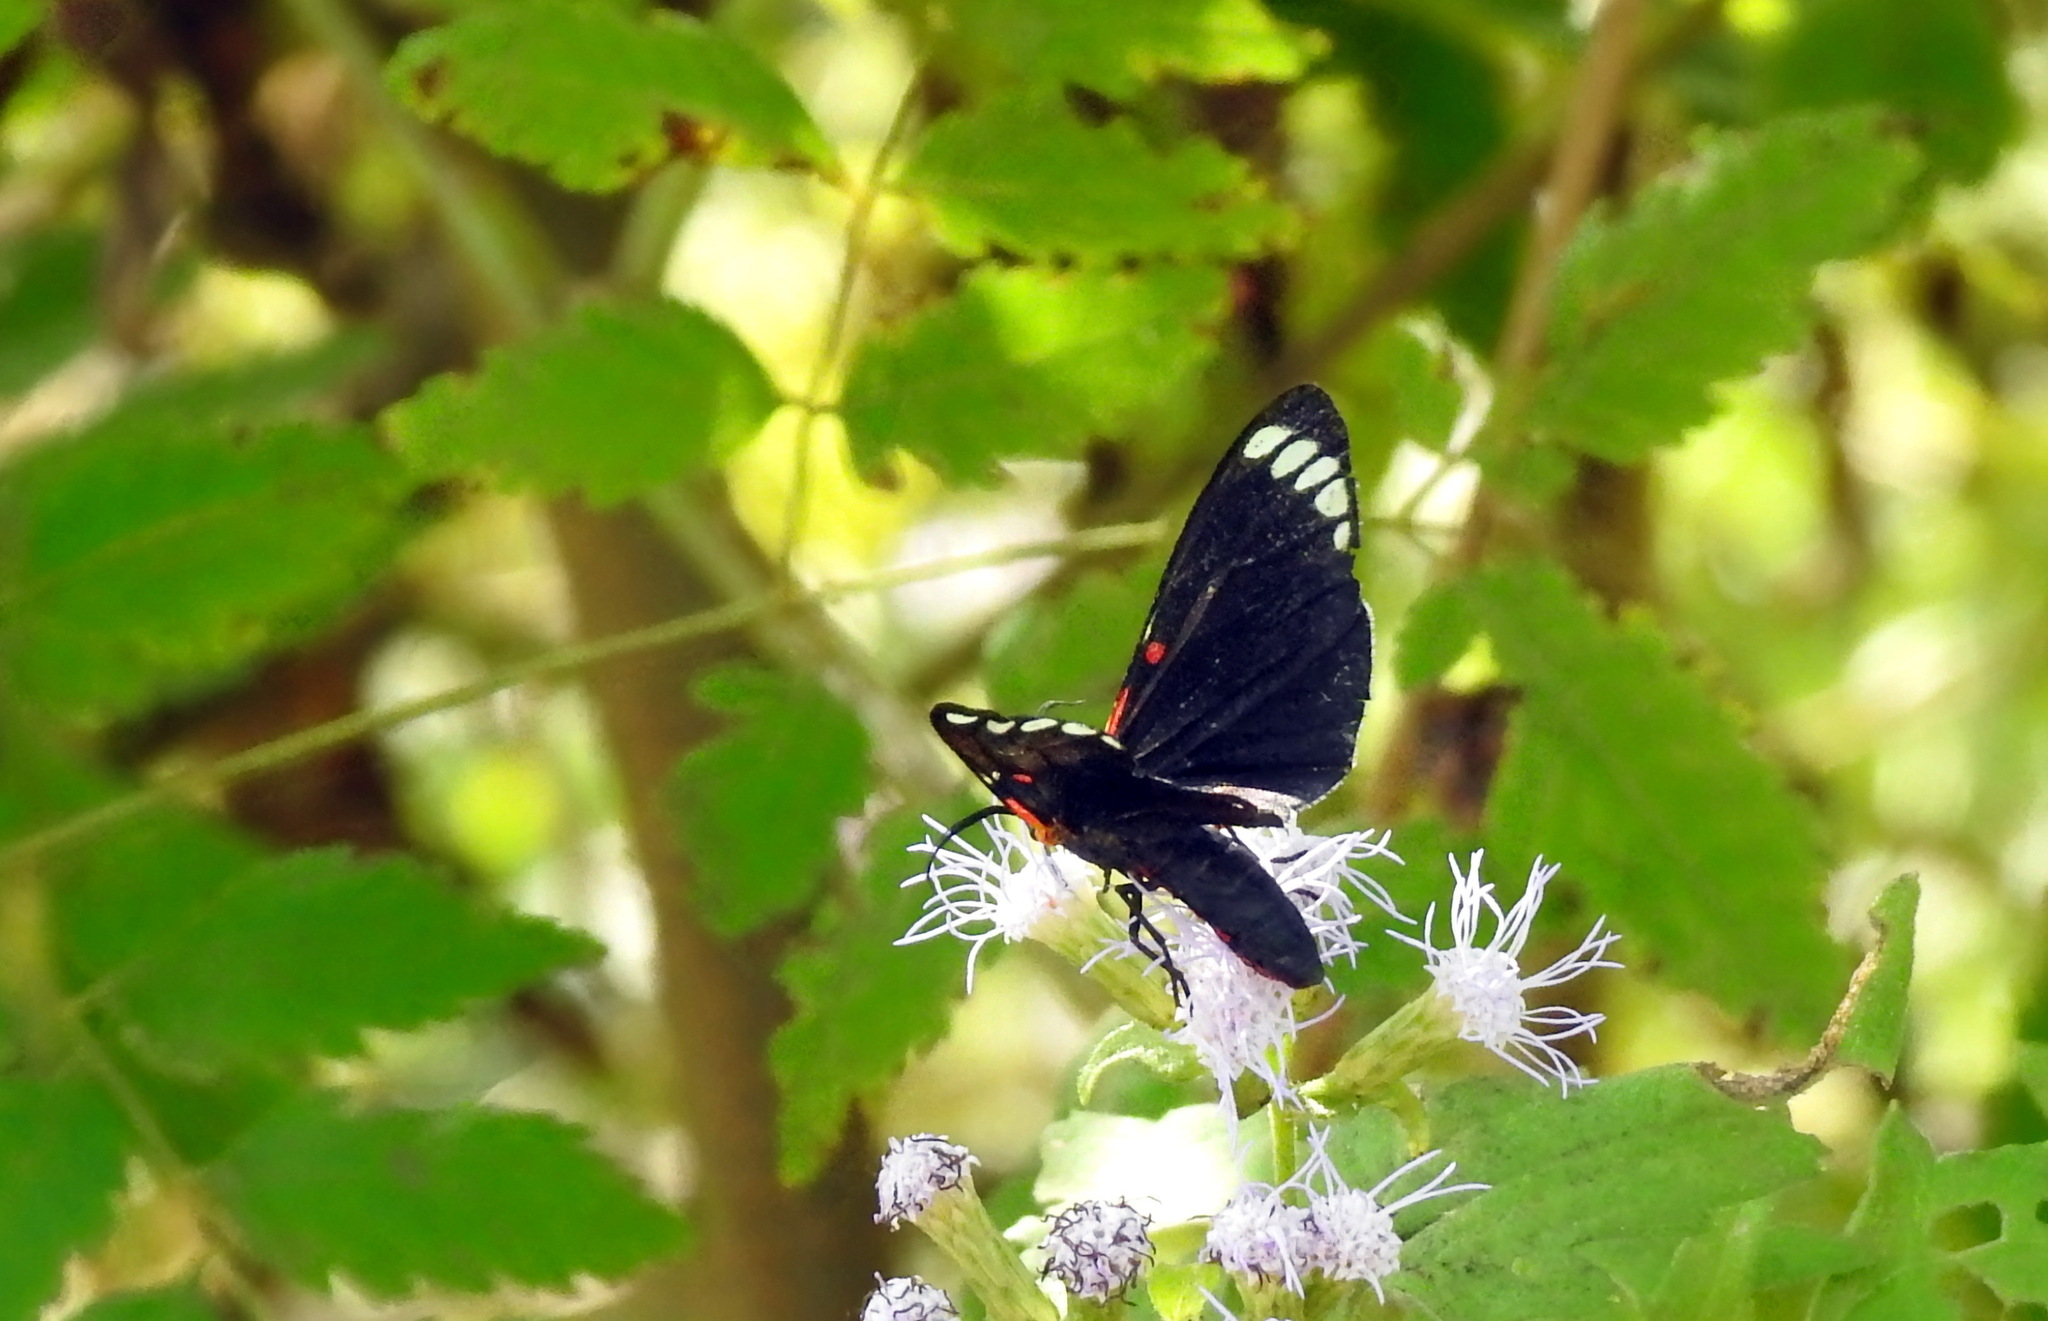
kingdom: Animalia
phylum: Arthropoda
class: Insecta
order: Lepidoptera
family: Erebidae
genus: Phaloesia
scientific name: Phaloesia saucia
